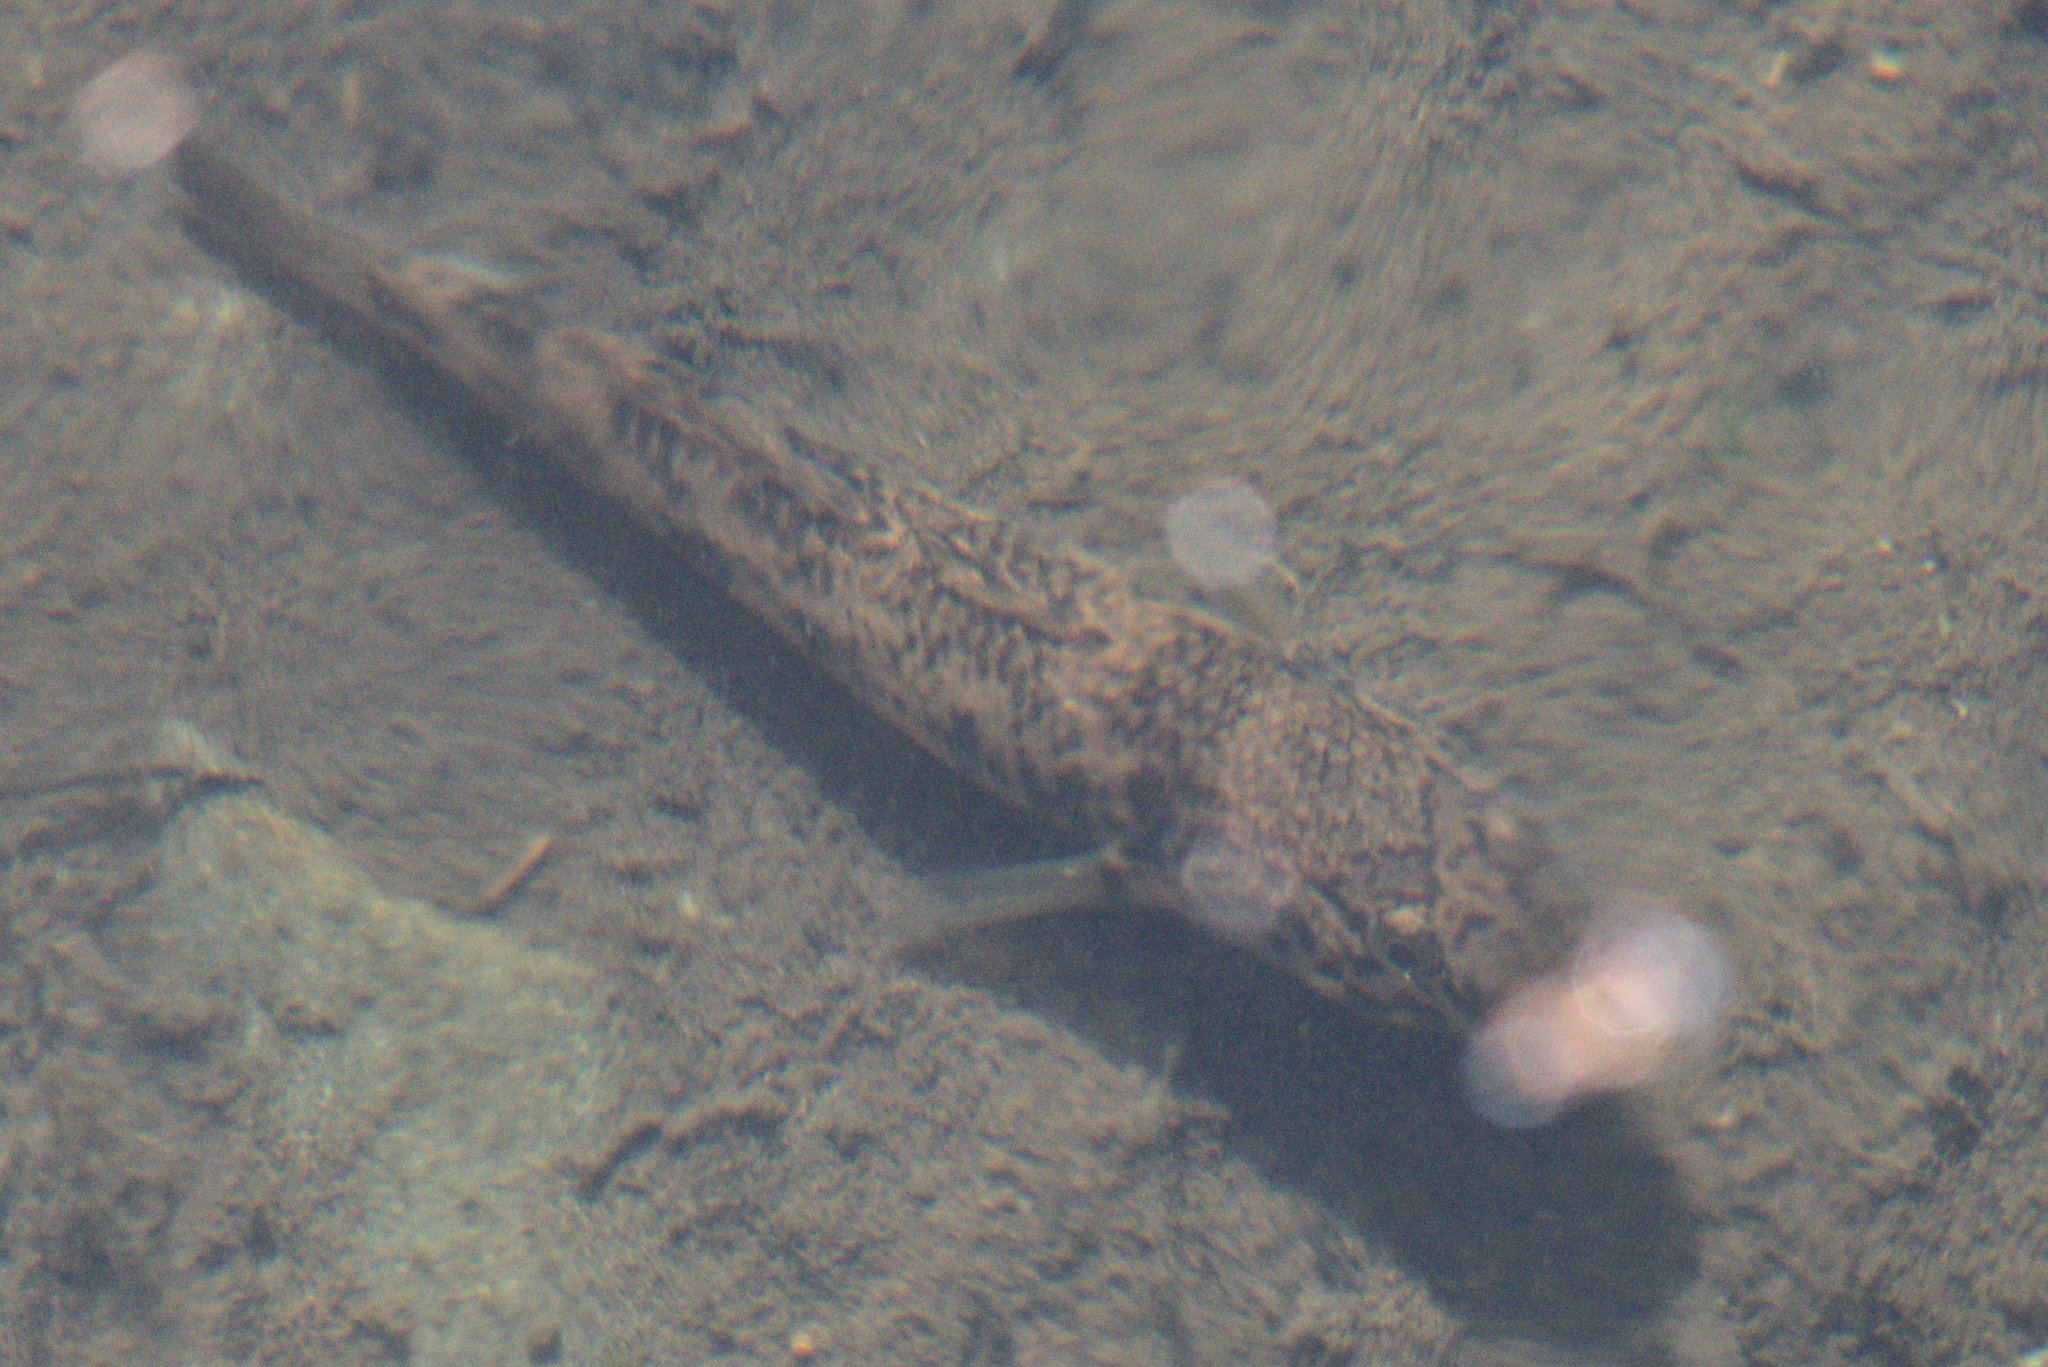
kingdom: Animalia
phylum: Chordata
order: Perciformes
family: Eleotridae
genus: Gobiomorphus
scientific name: Gobiomorphus cotidianus
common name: Common bully
